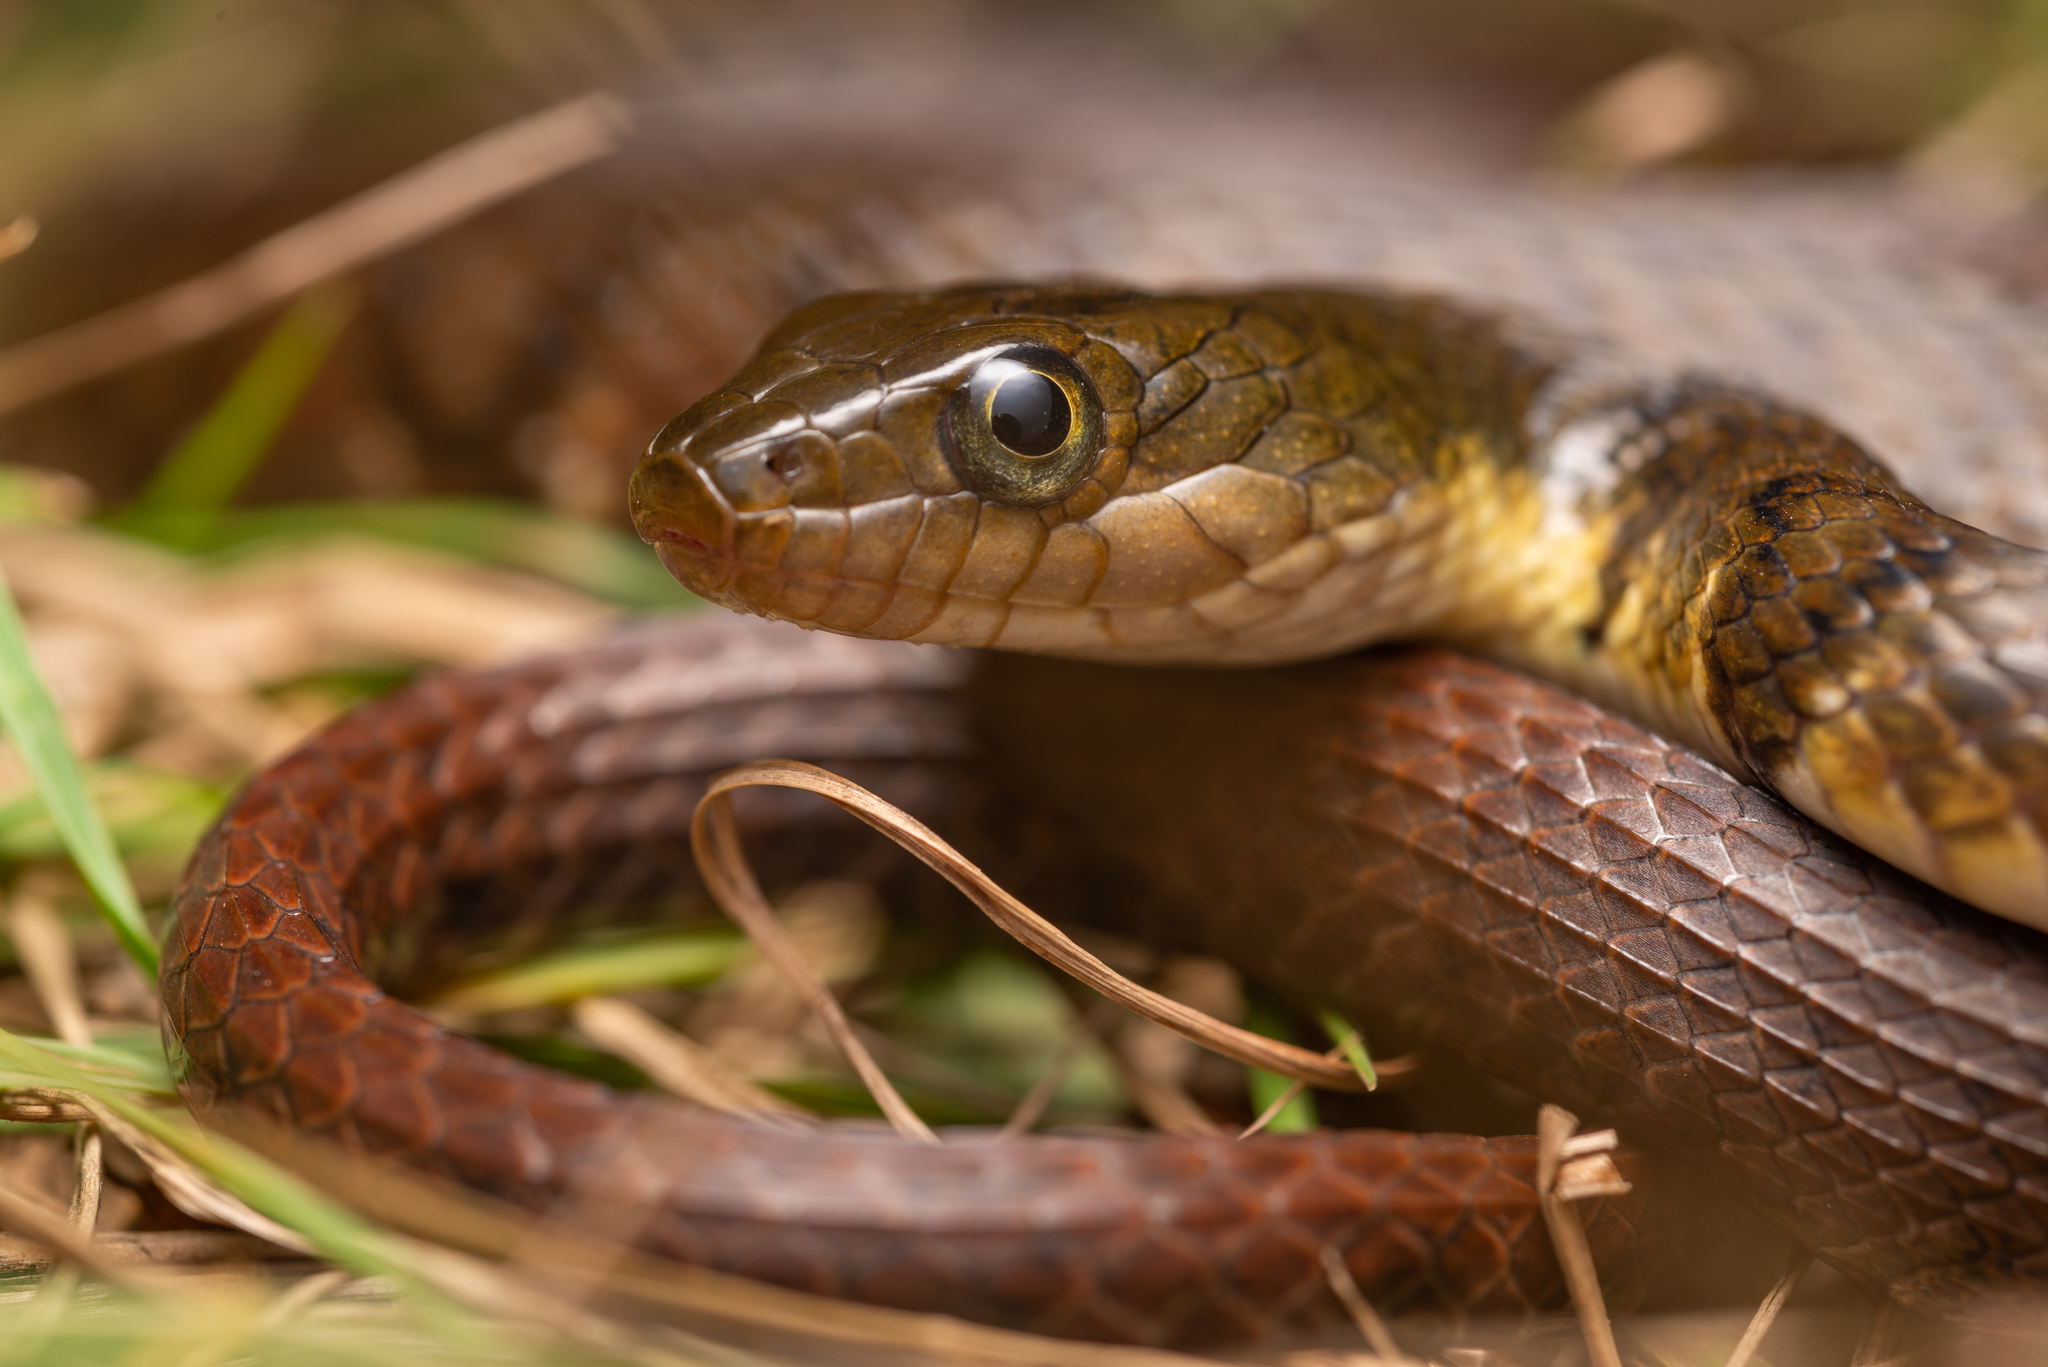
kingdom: Animalia
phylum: Chordata
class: Squamata
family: Colubridae
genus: Trimerodytes
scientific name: Trimerodytes percarinatus
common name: Eastern water snake
